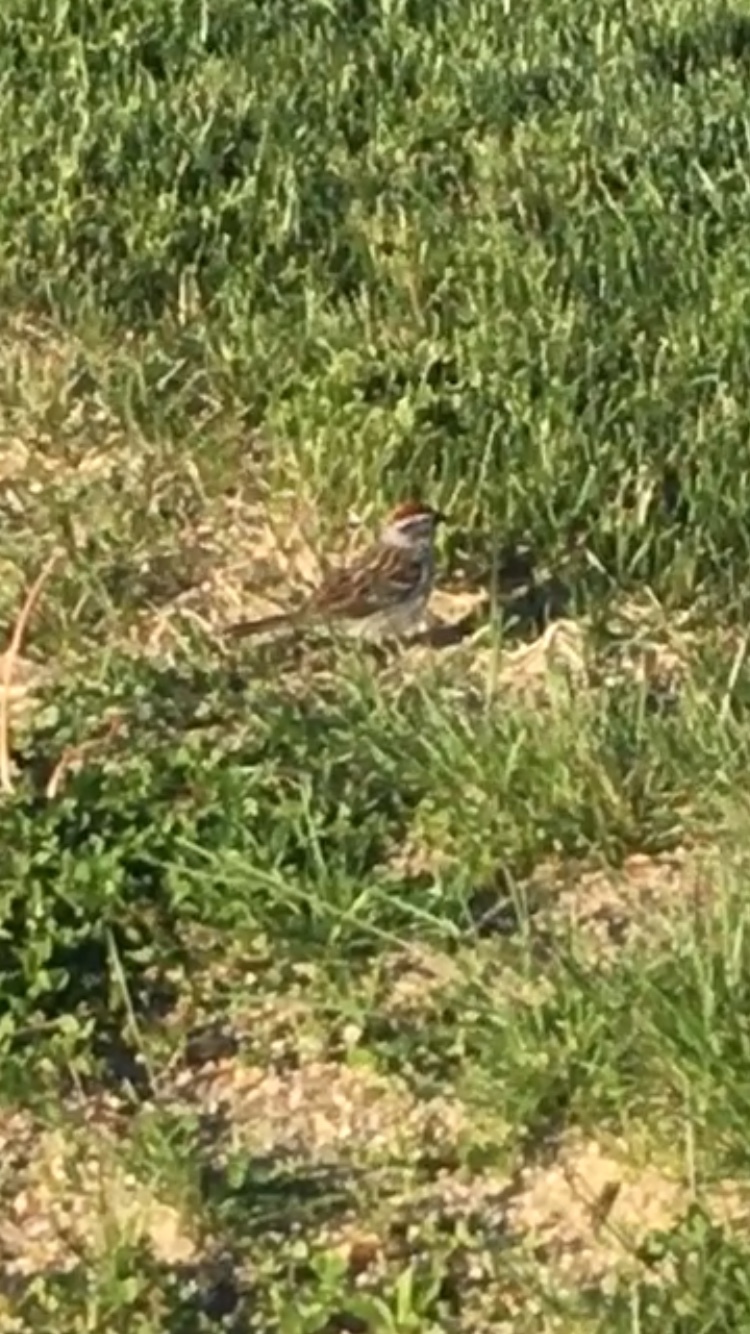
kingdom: Animalia
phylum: Chordata
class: Aves
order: Passeriformes
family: Passerellidae
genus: Spizella
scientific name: Spizella passerina
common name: Chipping sparrow
